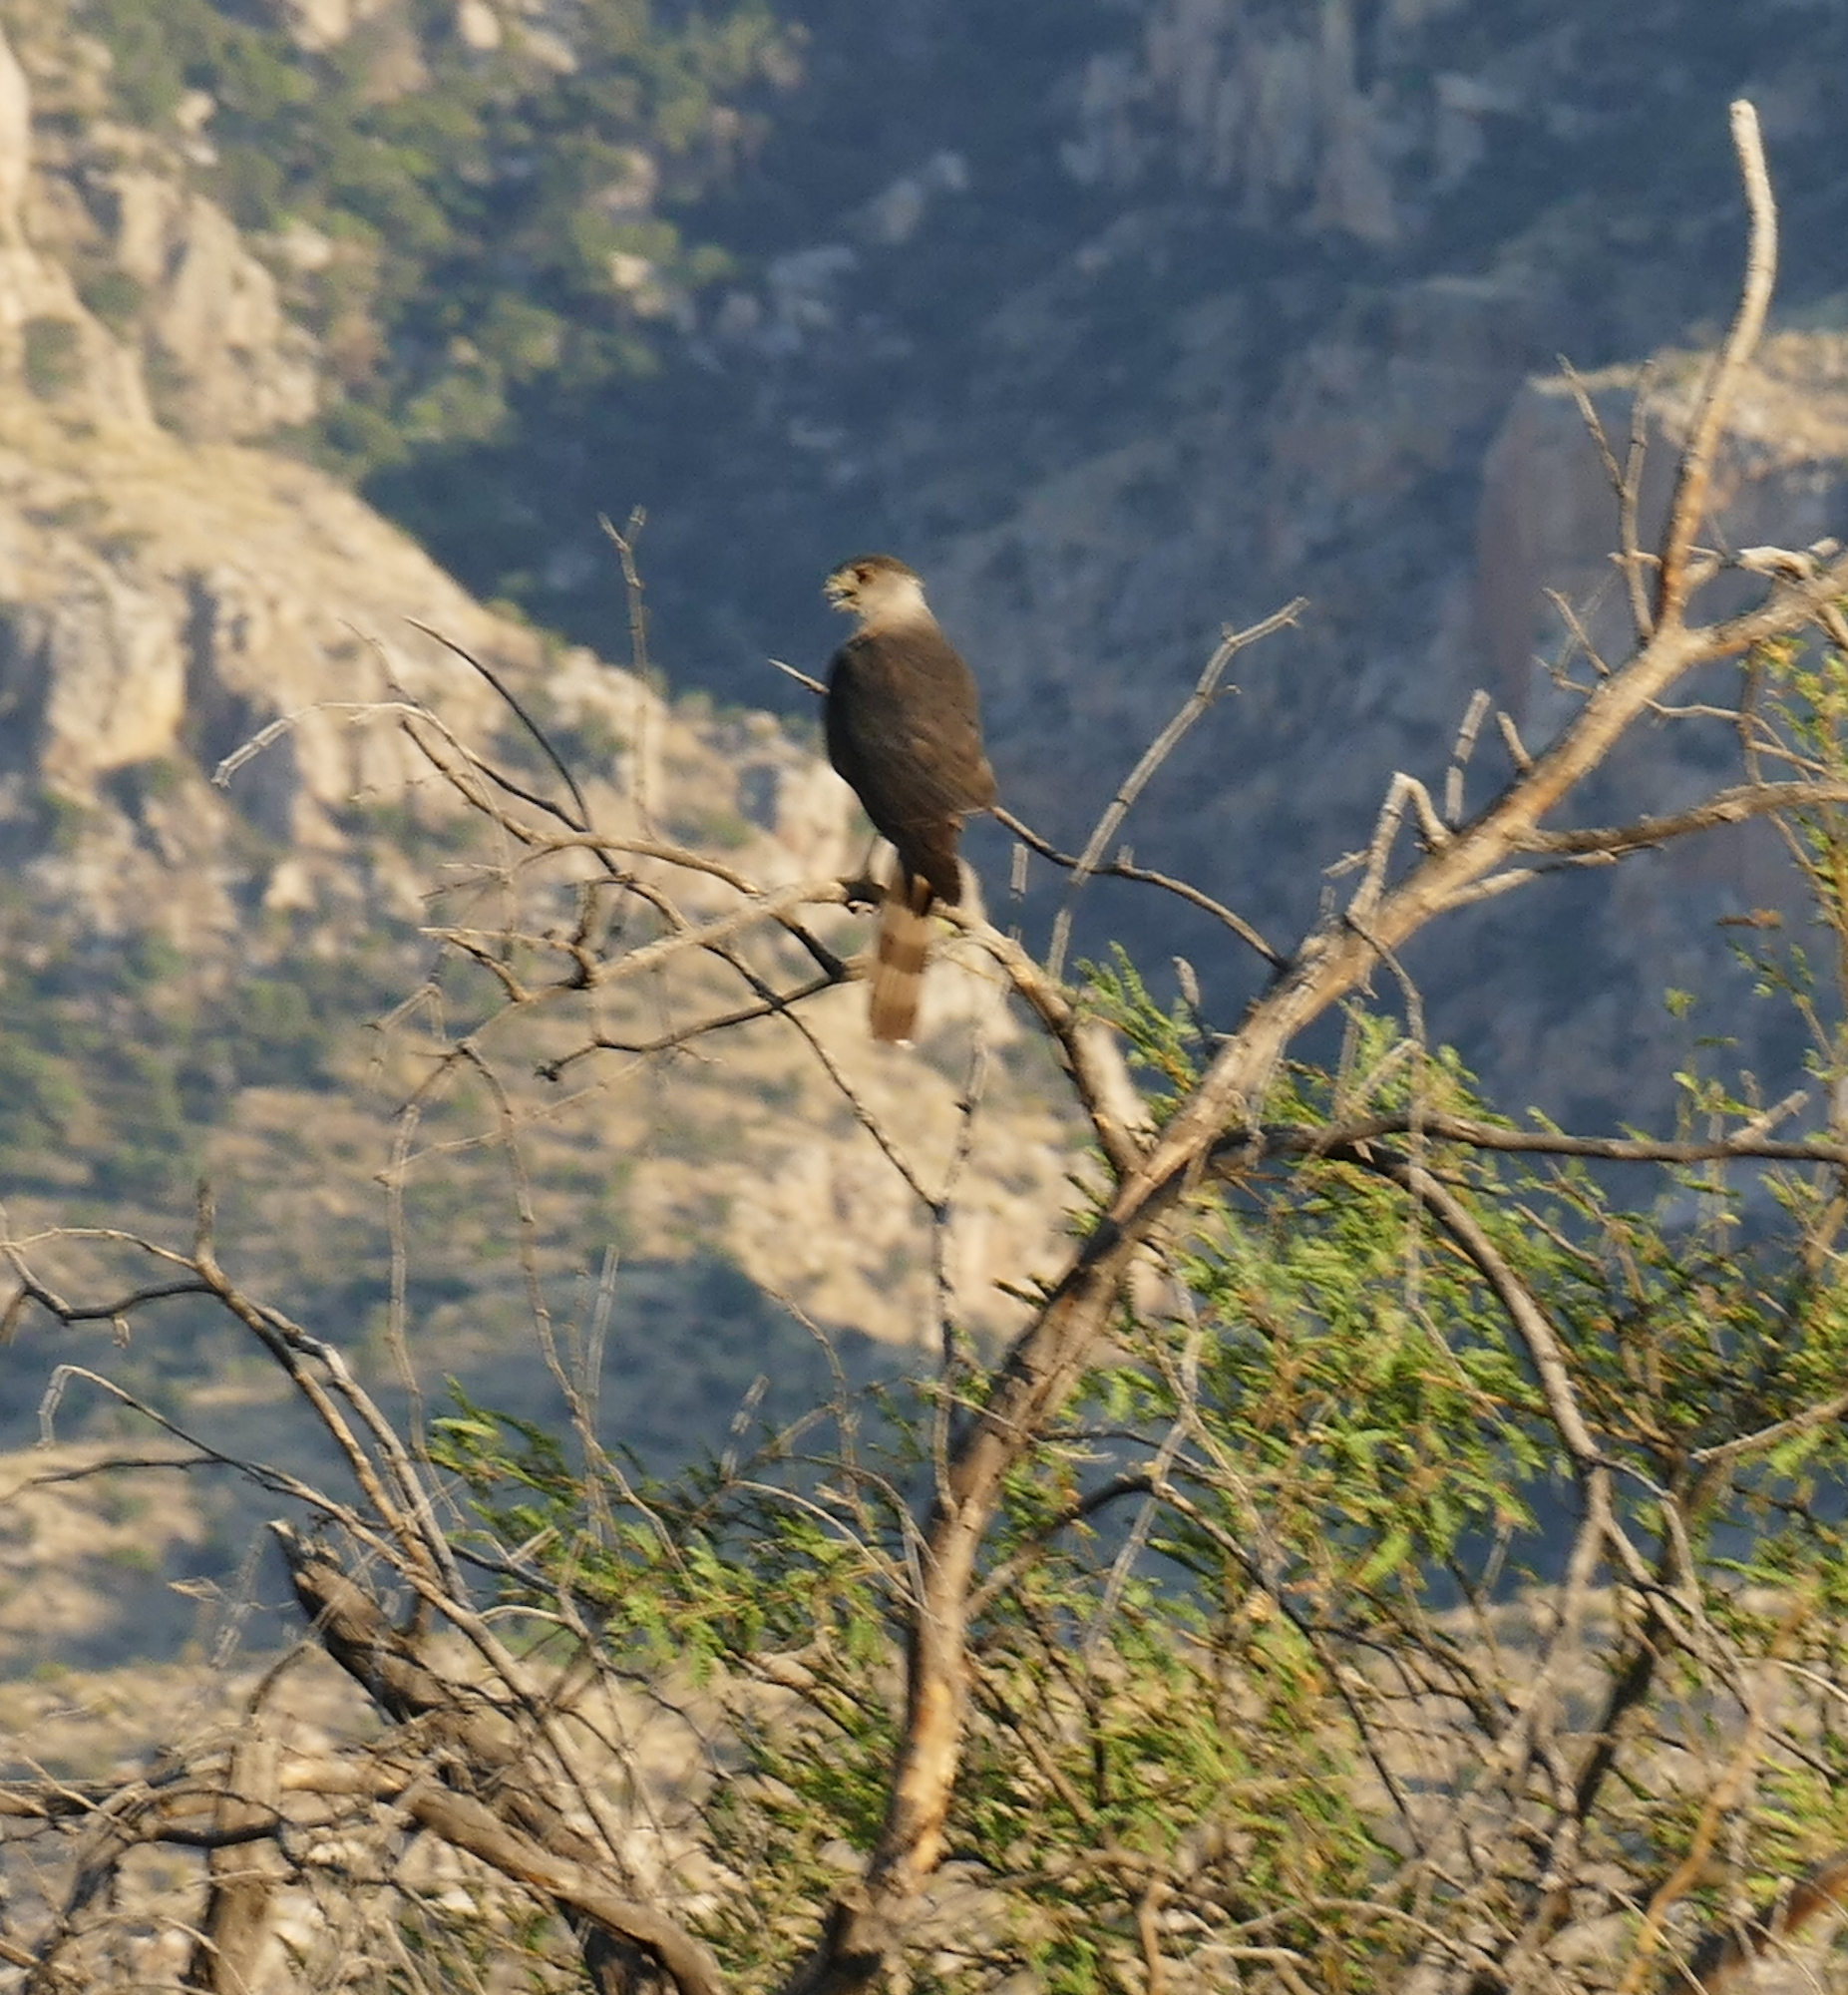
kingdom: Animalia
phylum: Chordata
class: Aves
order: Accipitriformes
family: Accipitridae
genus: Accipiter
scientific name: Accipiter cooperii
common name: Cooper's hawk
